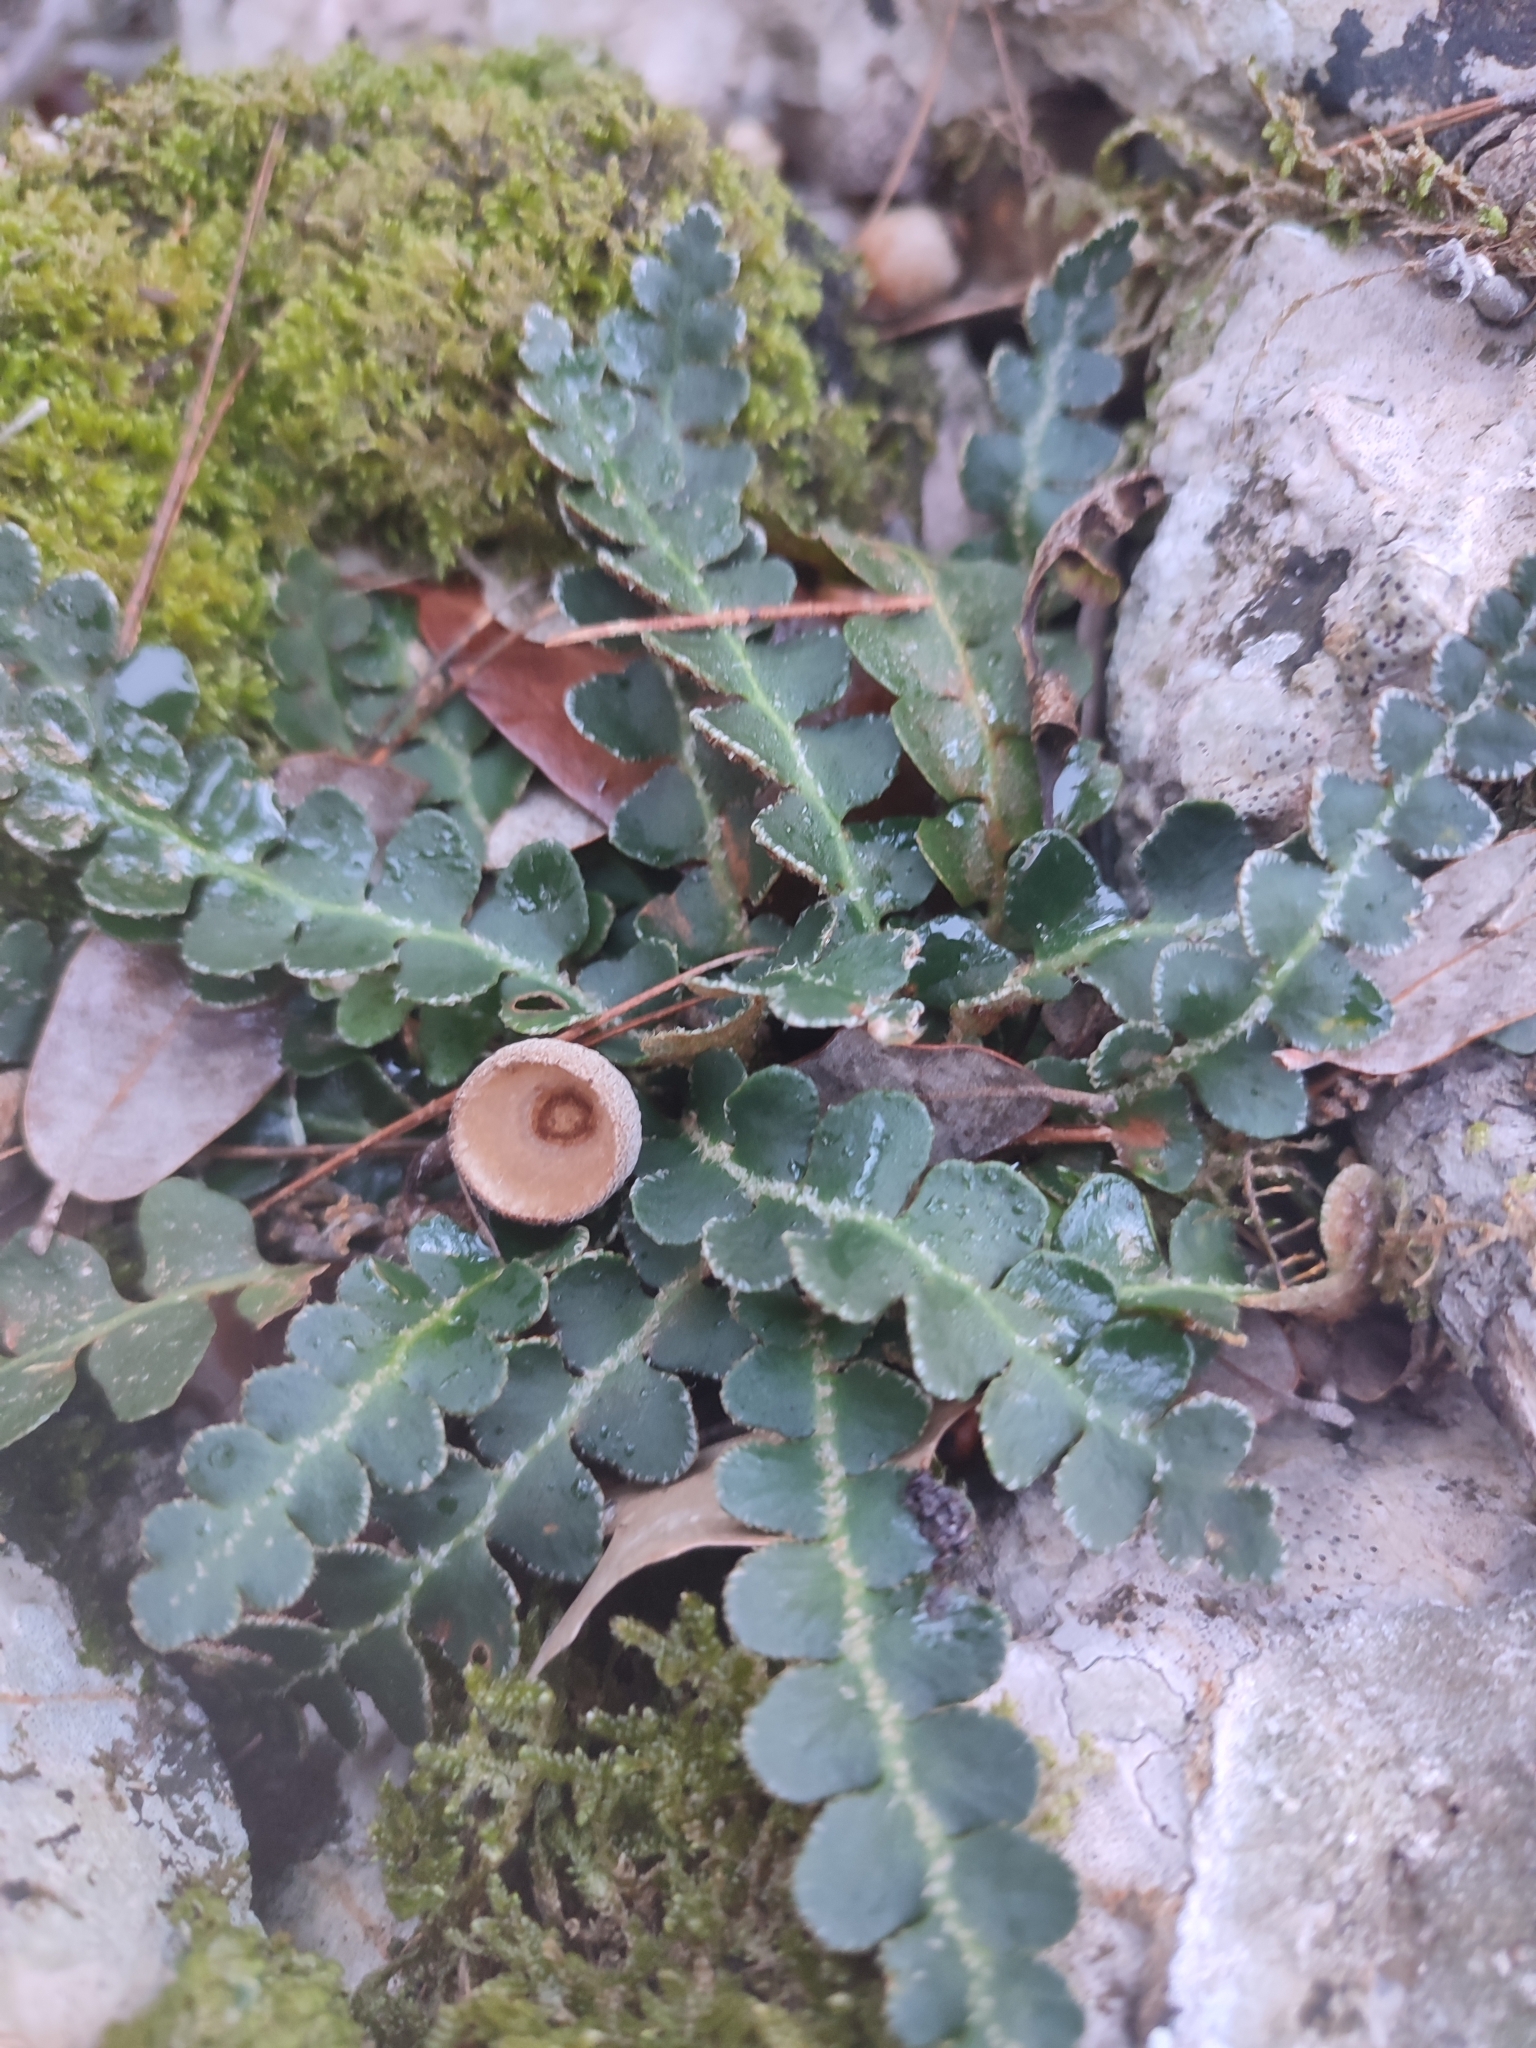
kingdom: Plantae
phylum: Tracheophyta
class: Polypodiopsida
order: Polypodiales
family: Aspleniaceae
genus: Asplenium
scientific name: Asplenium ceterach
